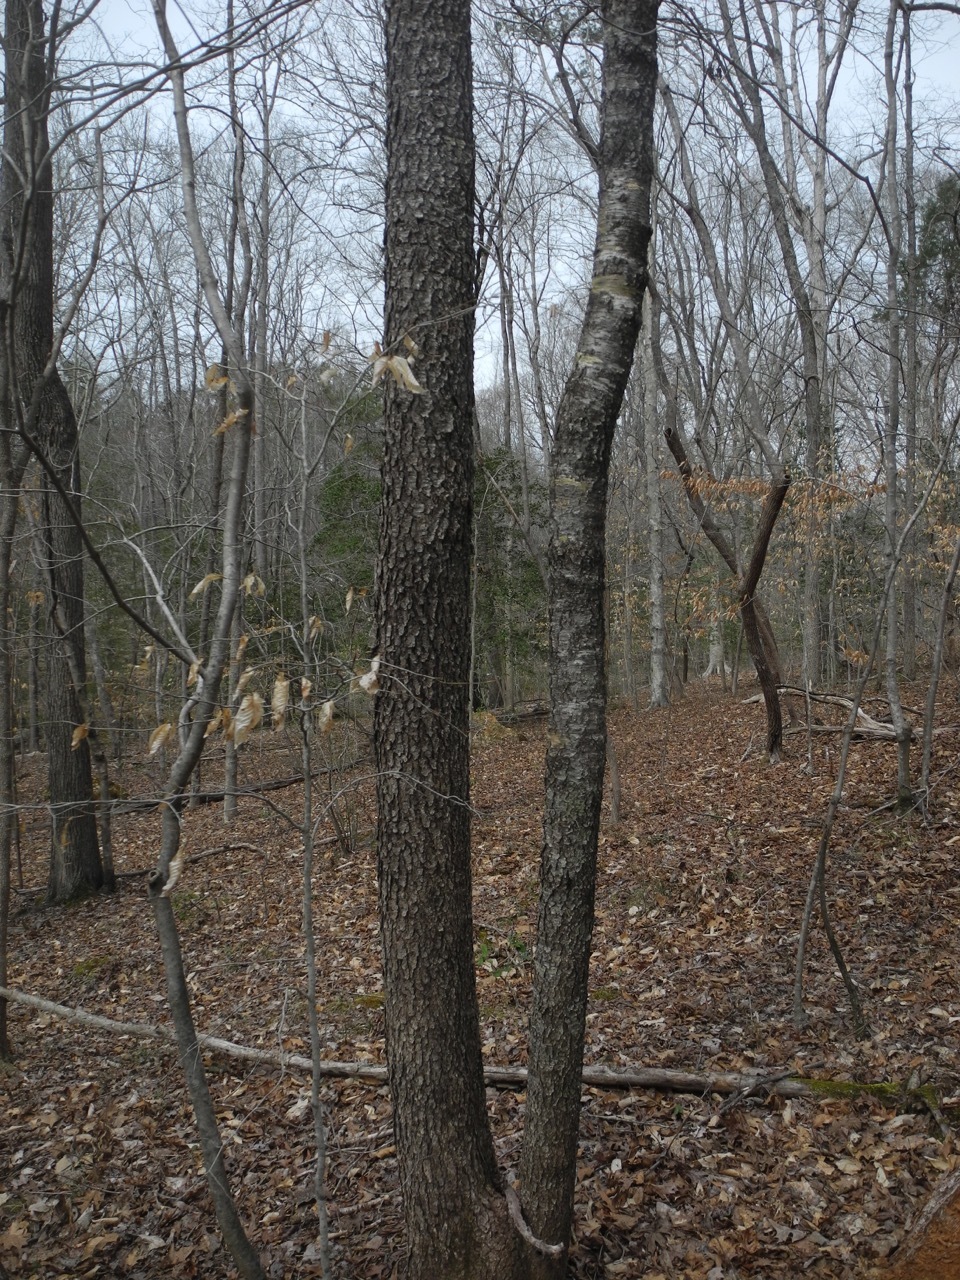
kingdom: Plantae
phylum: Tracheophyta
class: Magnoliopsida
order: Rosales
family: Rosaceae
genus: Prunus
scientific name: Prunus serotina
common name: Black cherry
